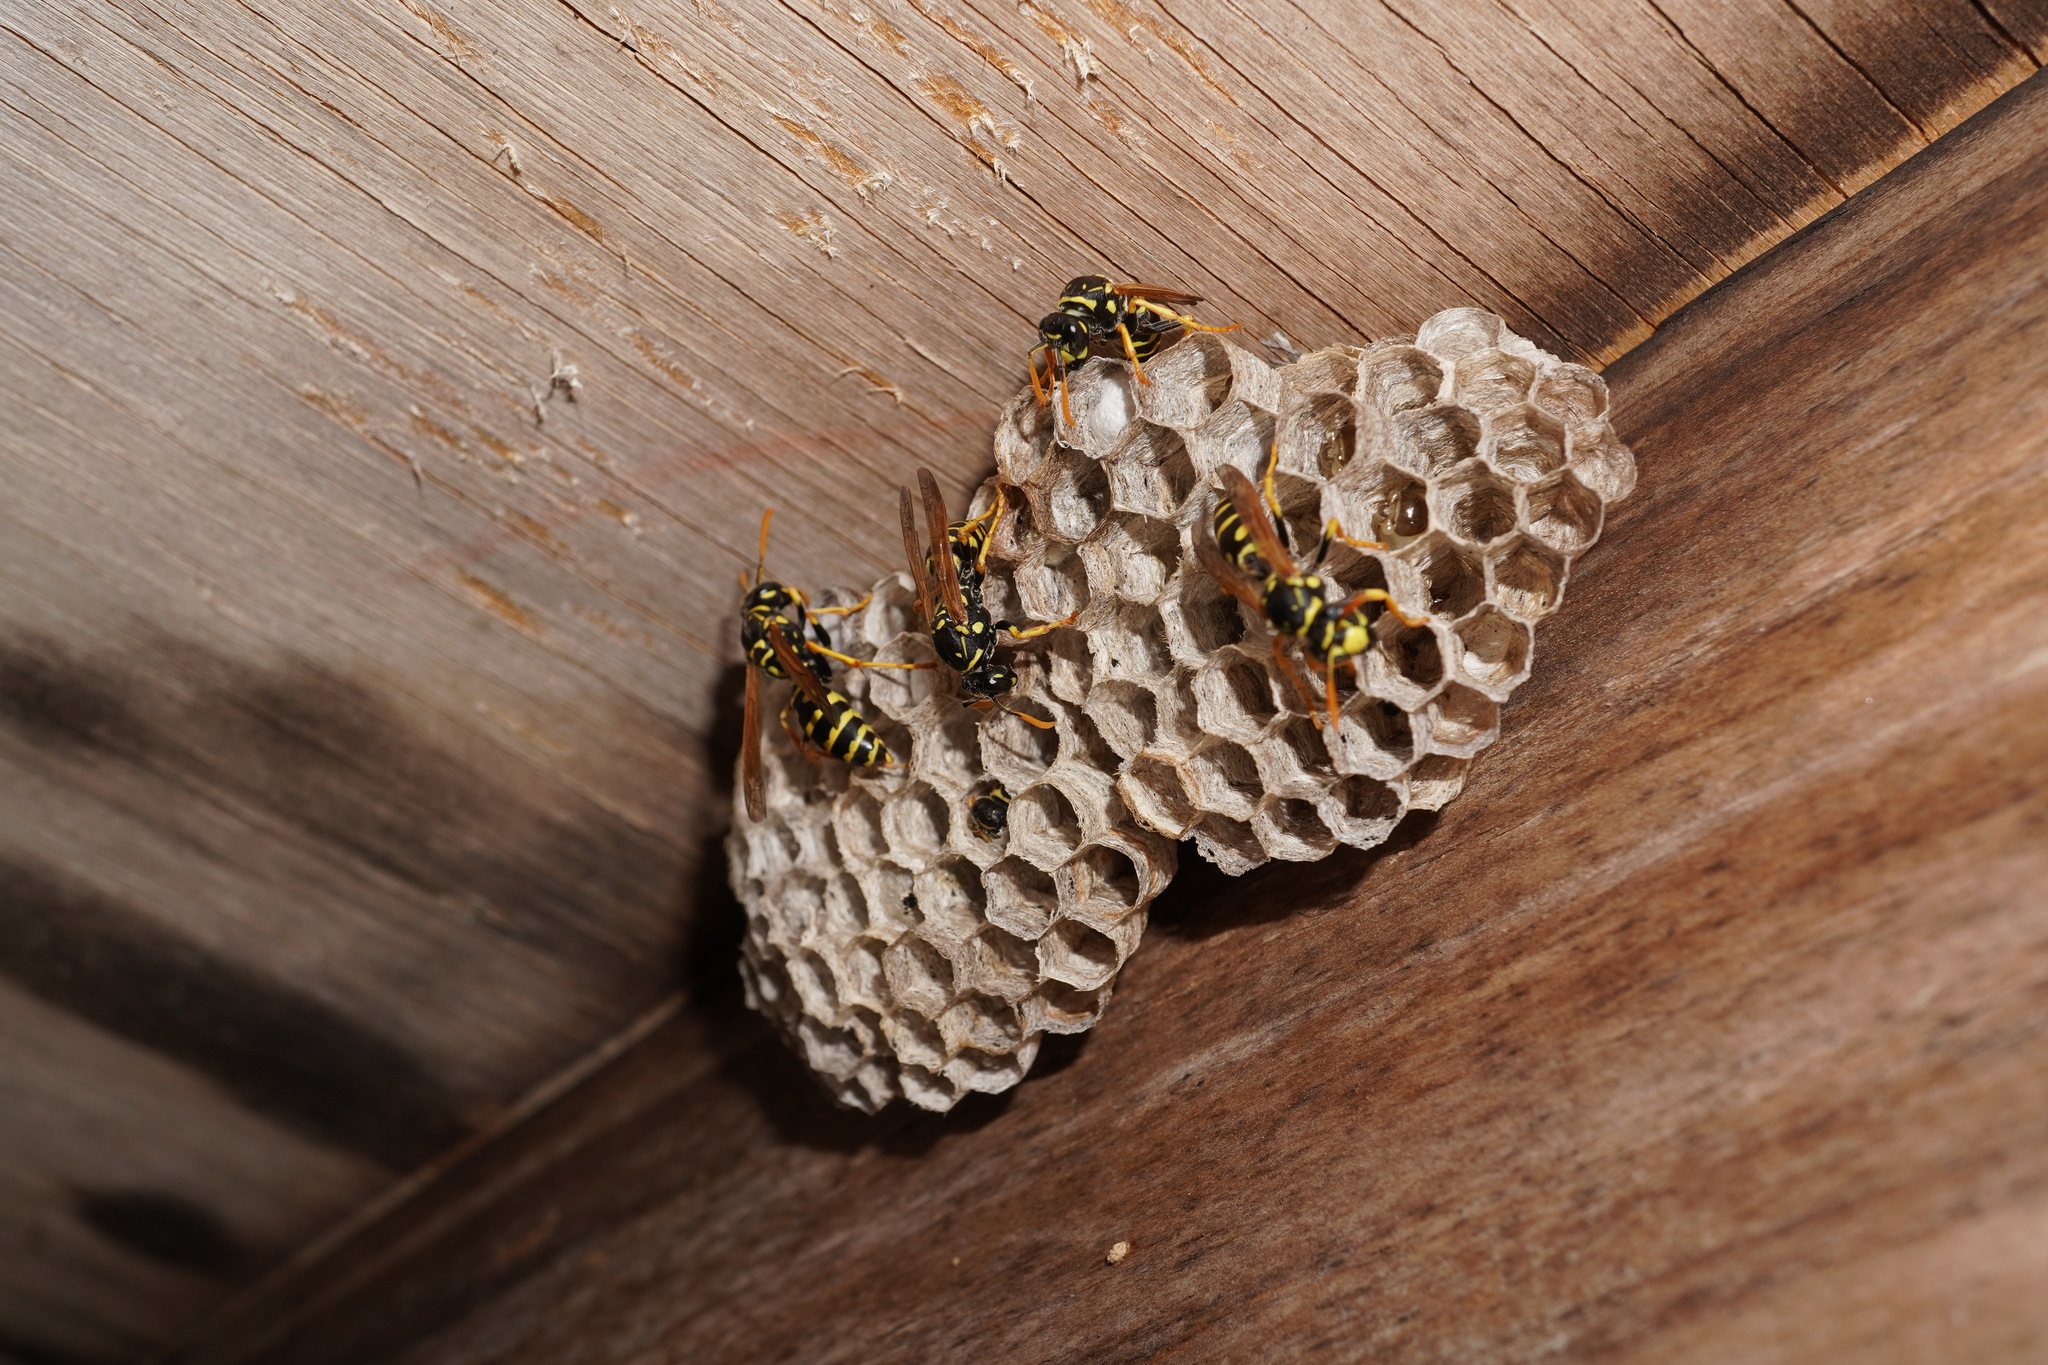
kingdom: Animalia
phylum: Arthropoda
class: Insecta
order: Hymenoptera
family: Eumenidae
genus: Polistes
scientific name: Polistes dominula
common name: Paper wasp
